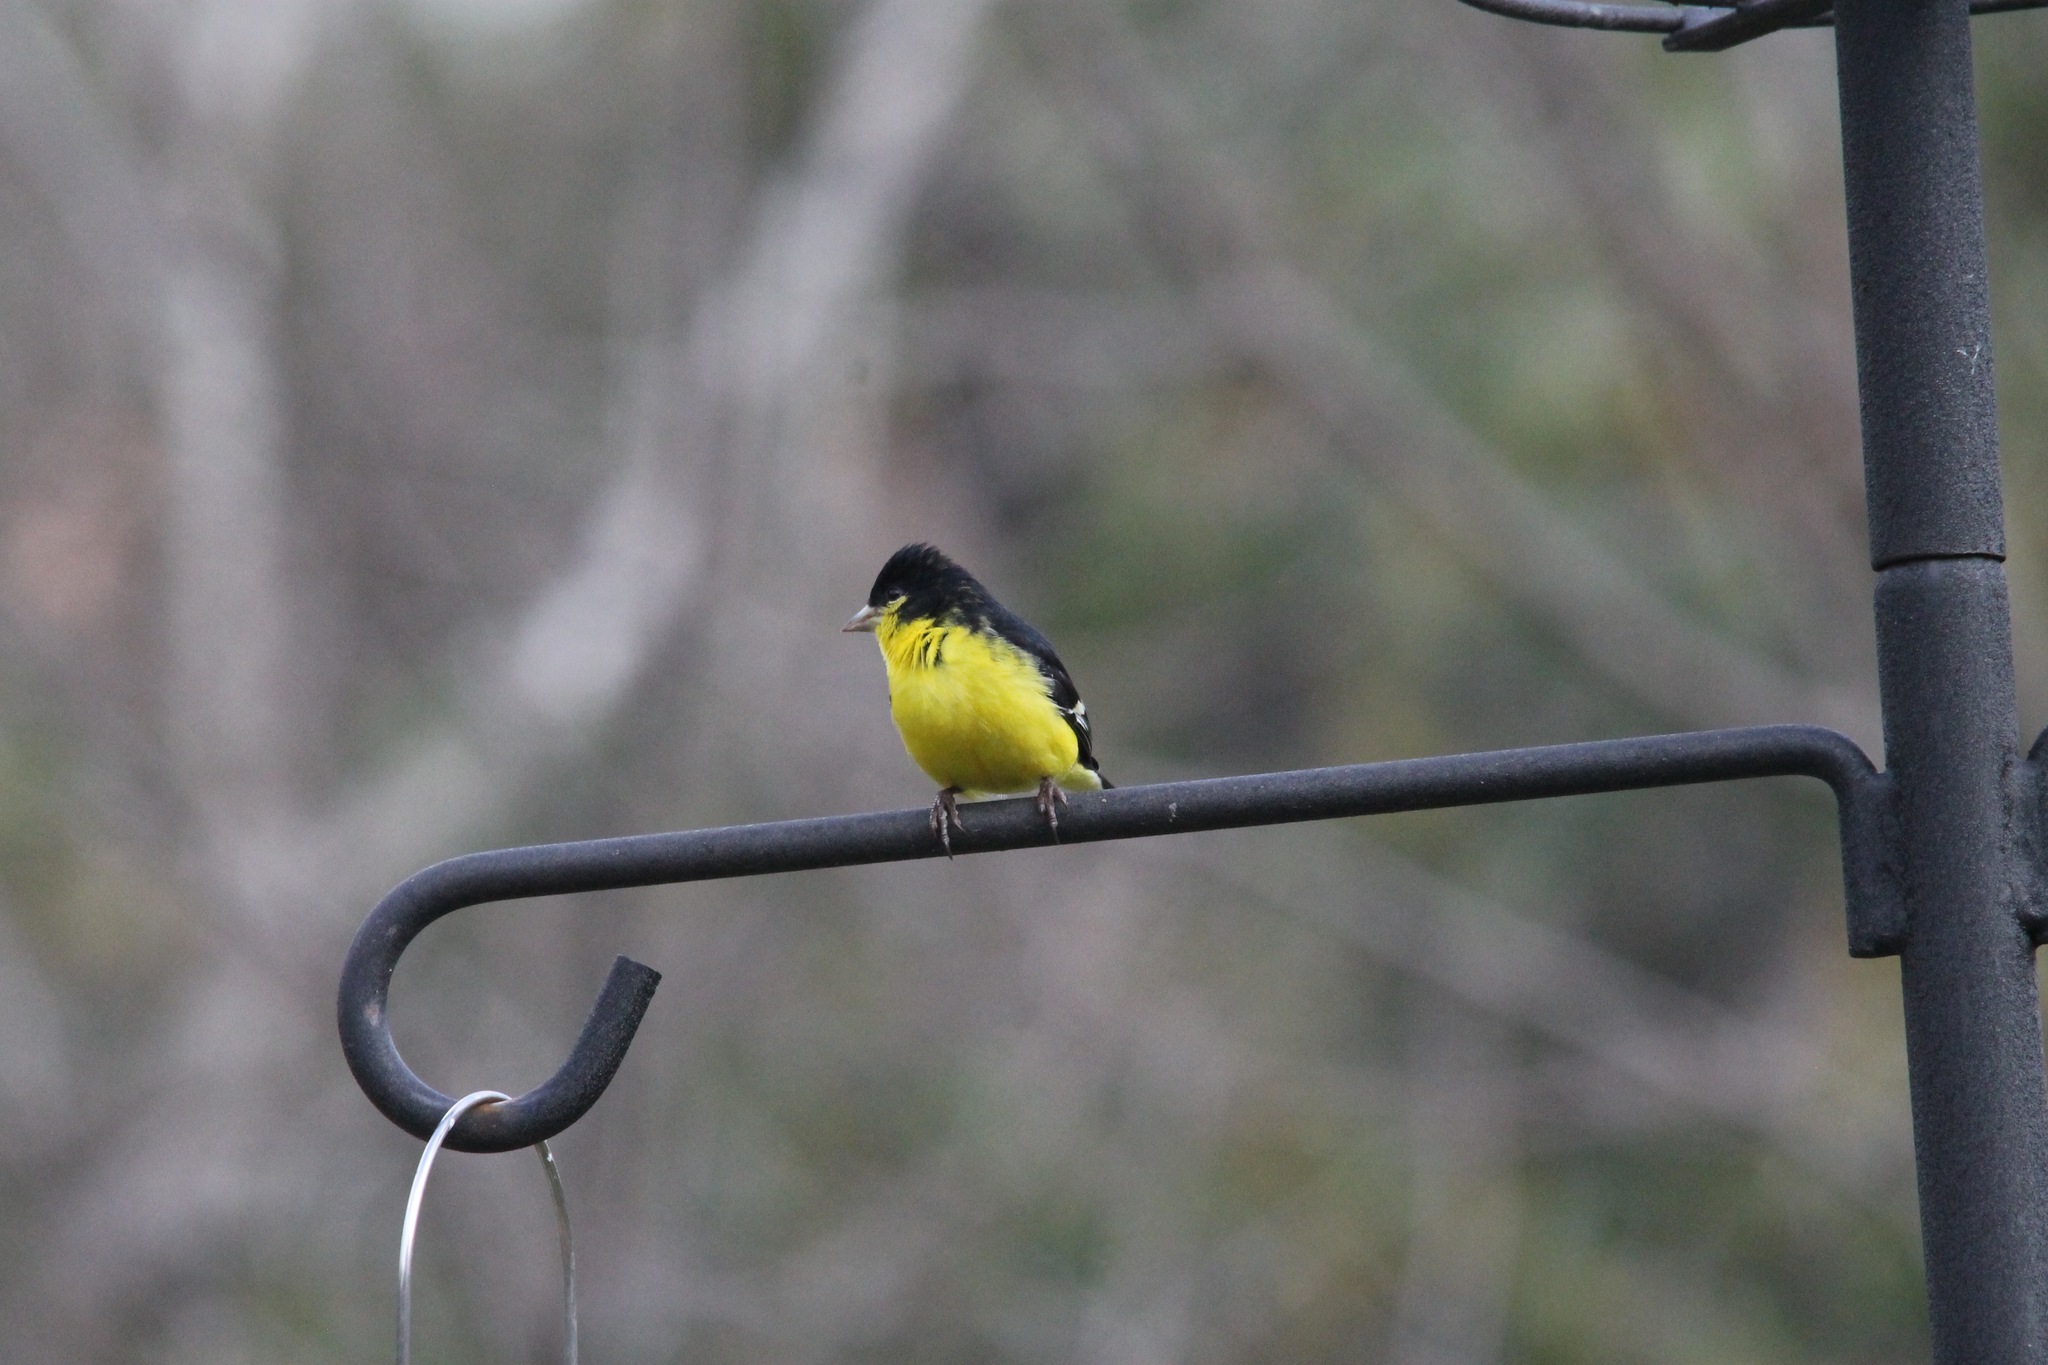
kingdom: Animalia
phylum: Chordata
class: Aves
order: Passeriformes
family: Fringillidae
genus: Spinus
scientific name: Spinus psaltria
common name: Lesser goldfinch
